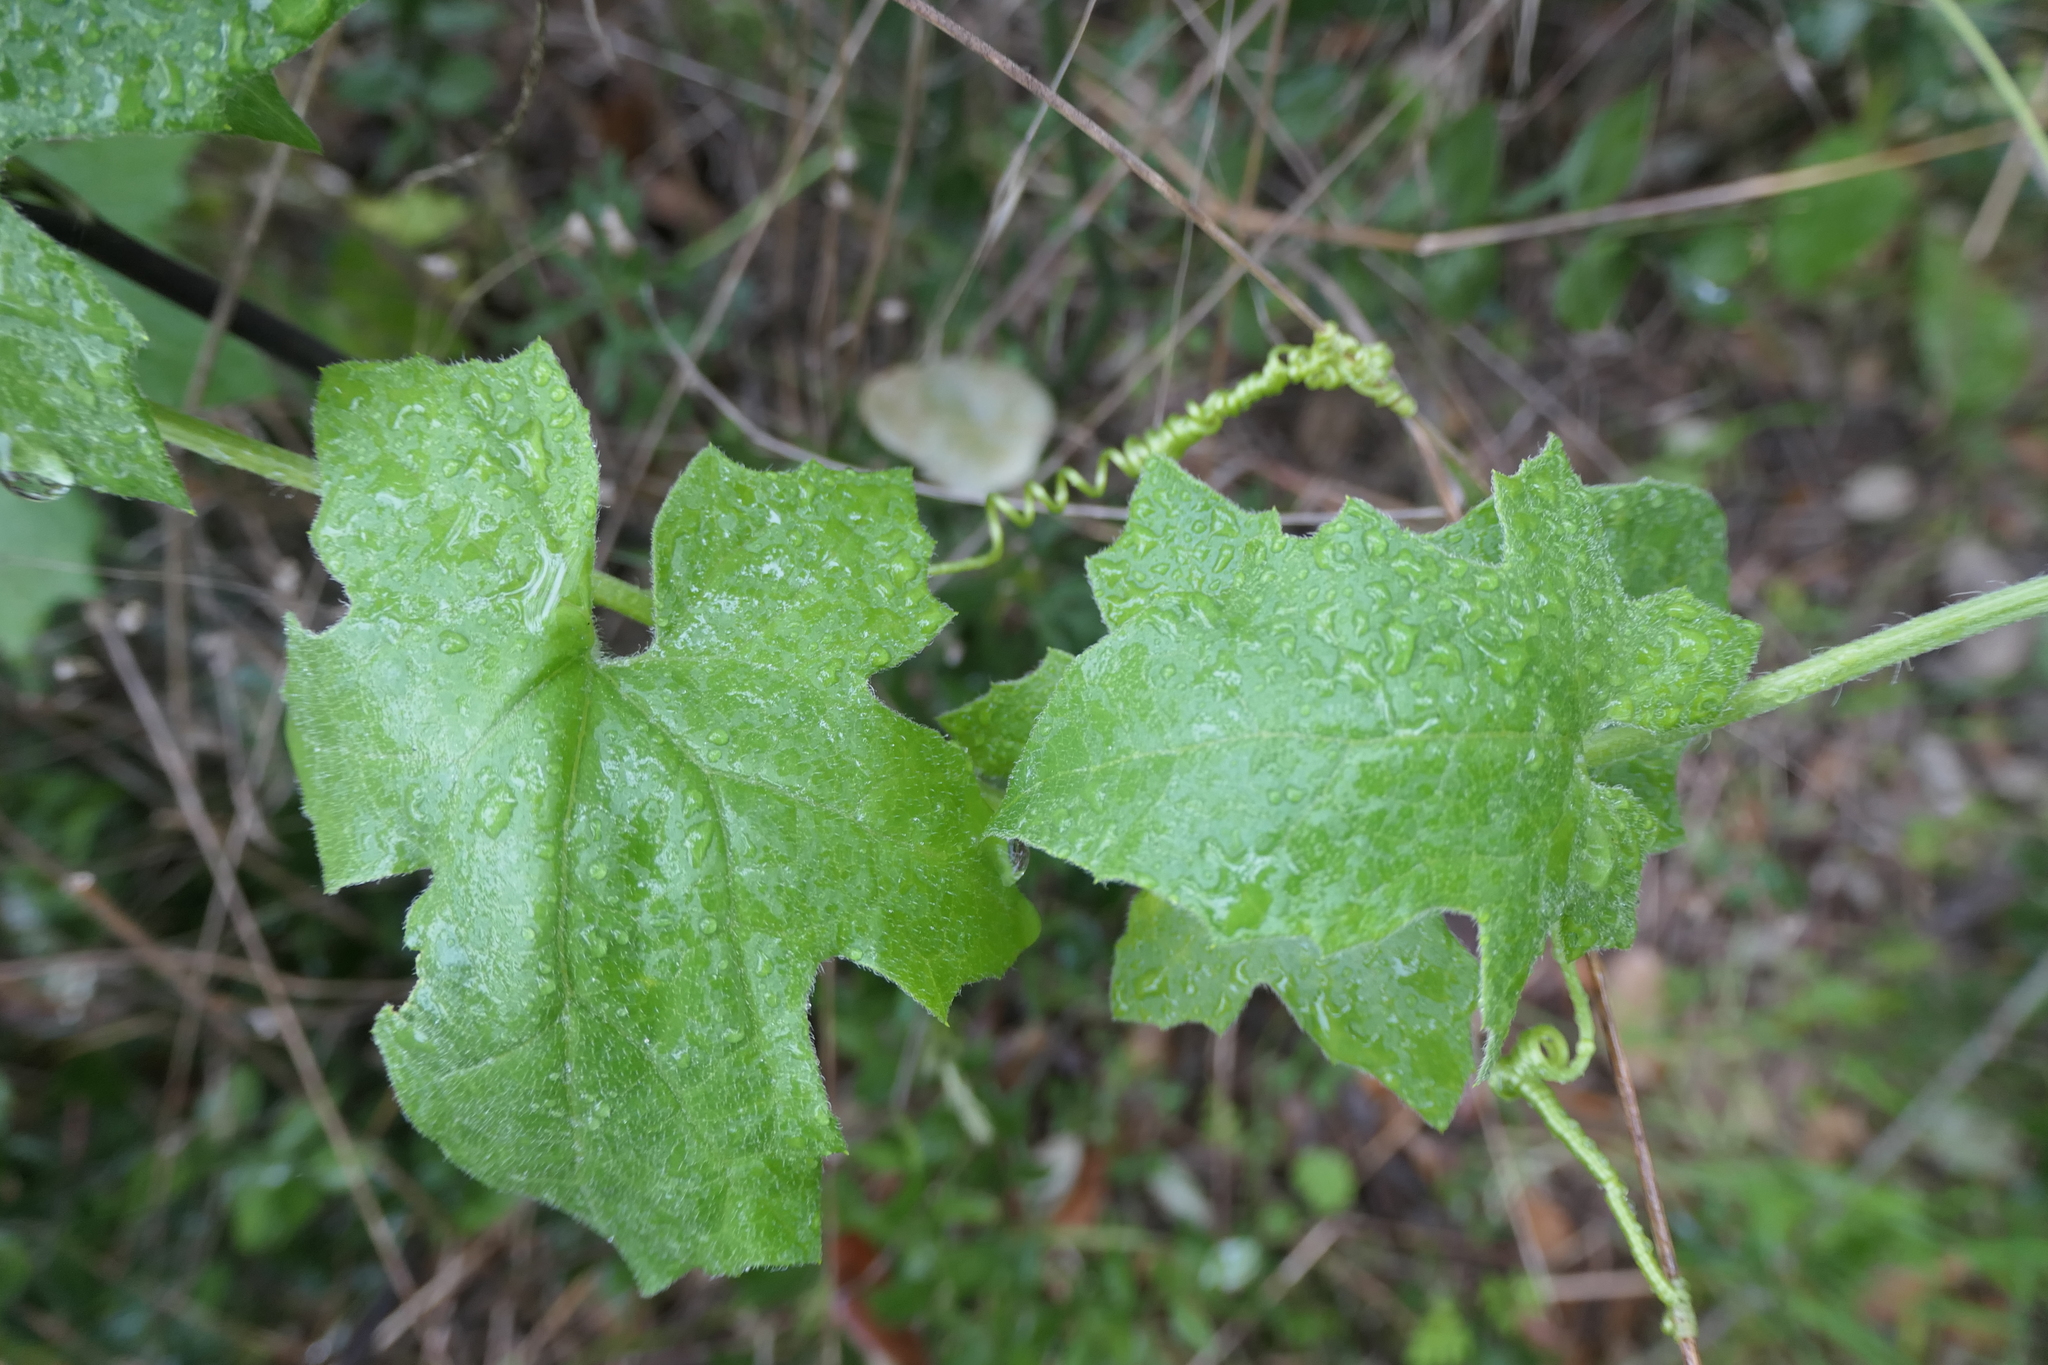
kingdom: Plantae
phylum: Tracheophyta
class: Magnoliopsida
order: Cucurbitales
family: Cucurbitaceae
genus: Bryonia
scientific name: Bryonia cretica
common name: Cretan bryony
